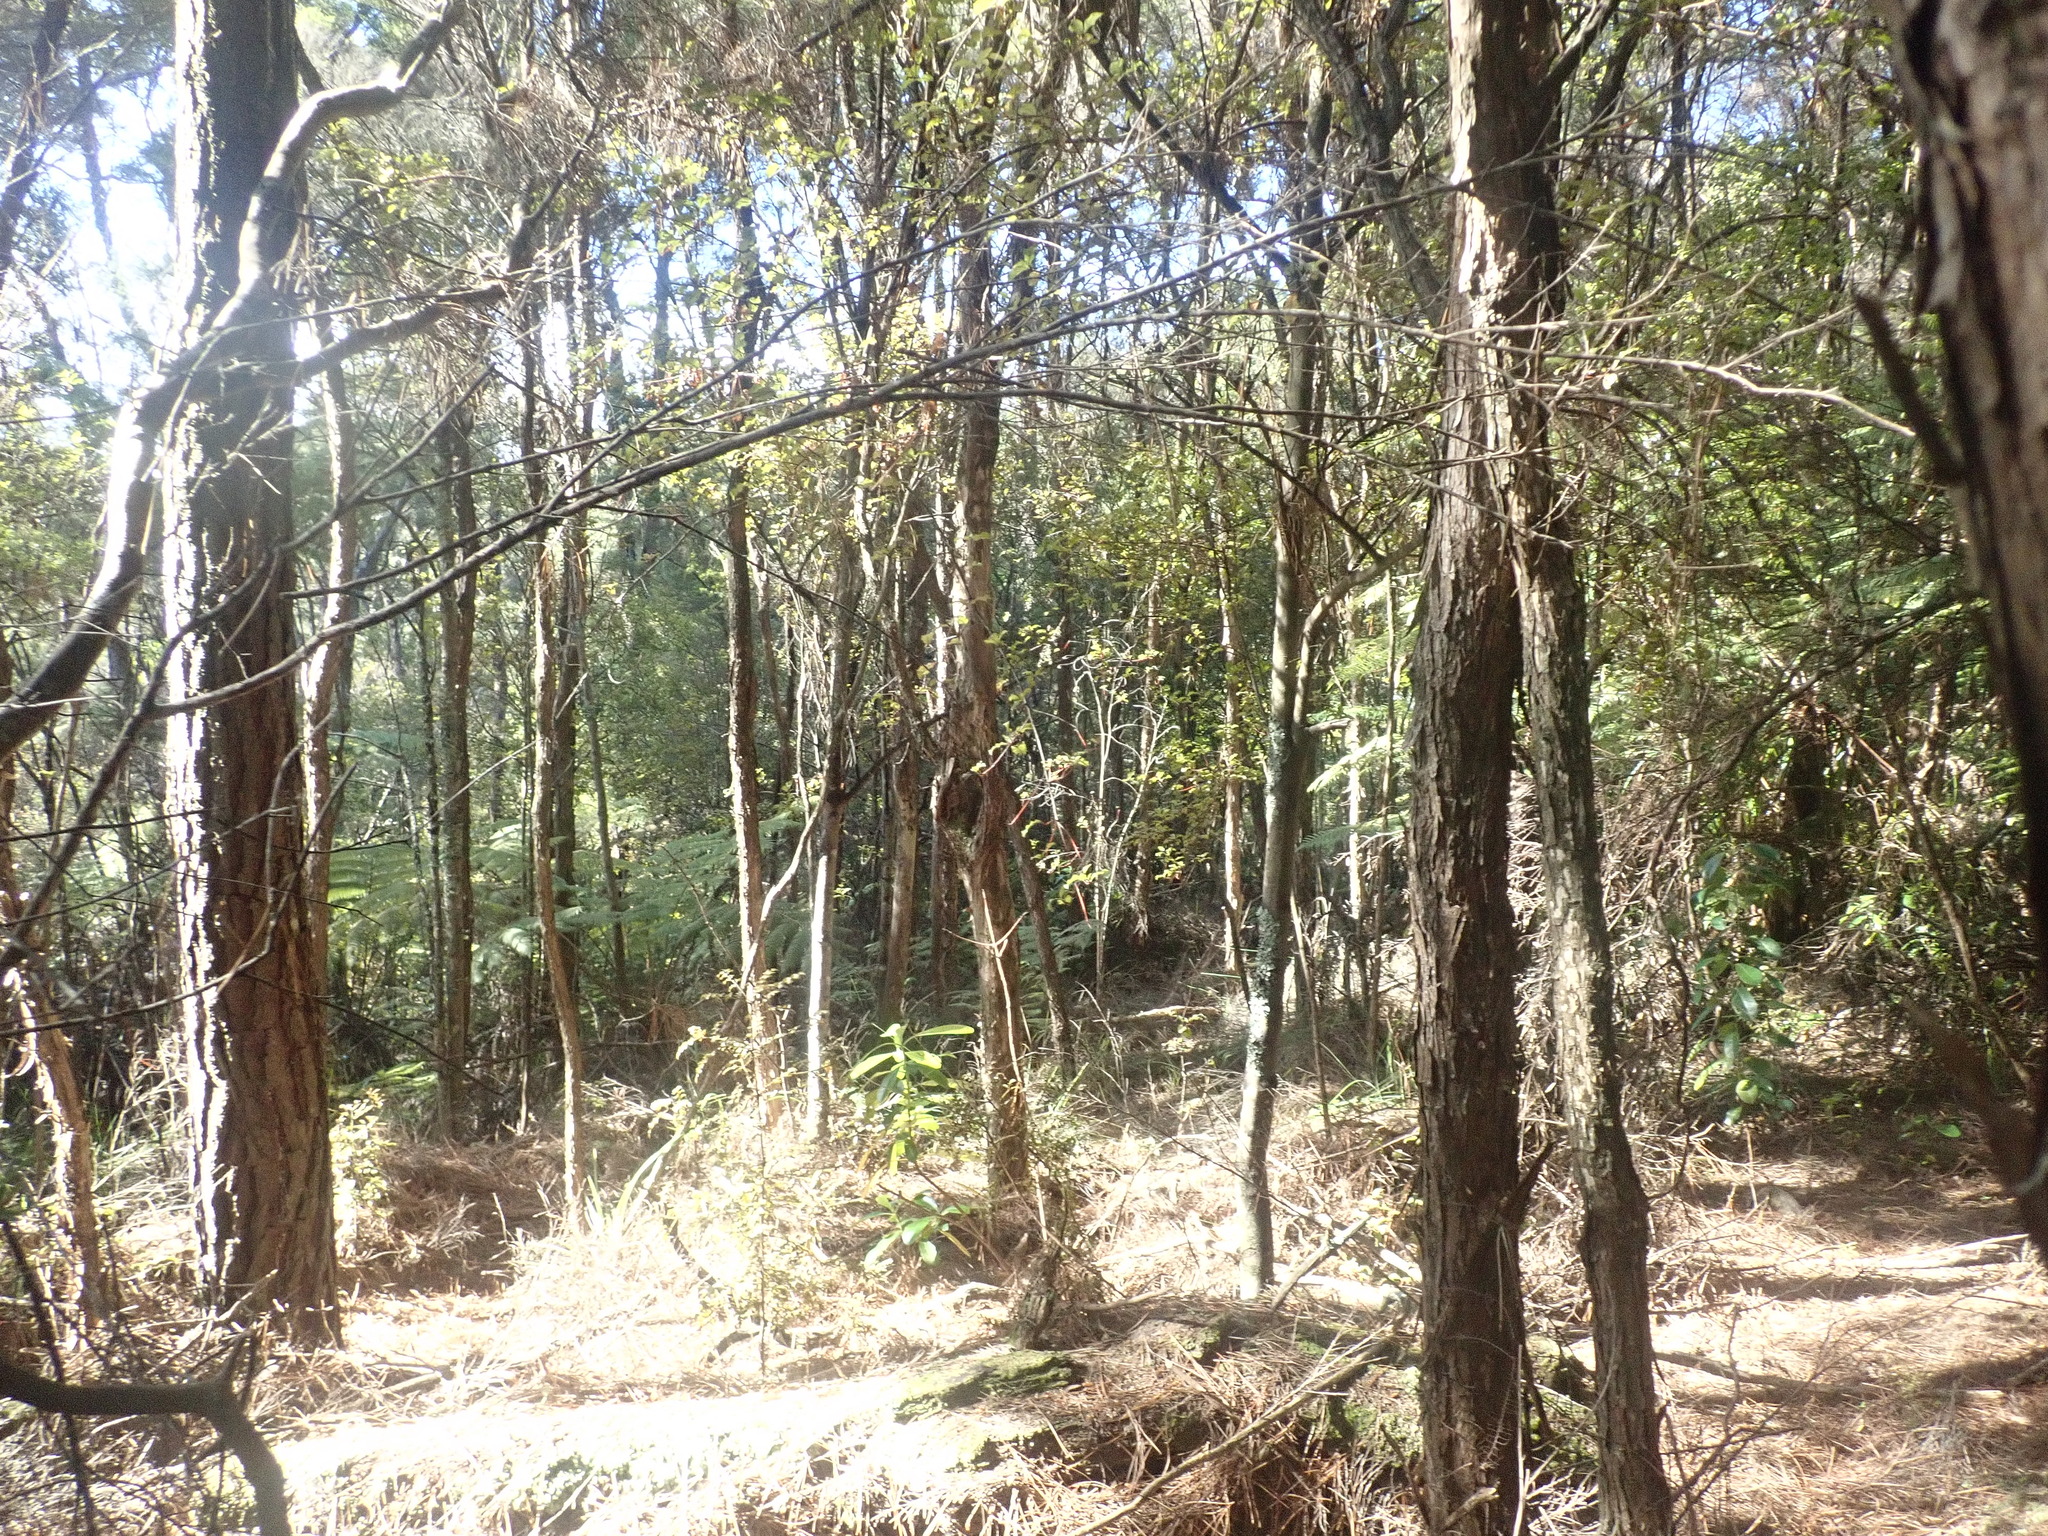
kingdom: Plantae
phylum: Tracheophyta
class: Pinopsida
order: Pinales
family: Phyllocladaceae
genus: Phyllocladus
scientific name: Phyllocladus trichomanoides
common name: Celery pine
